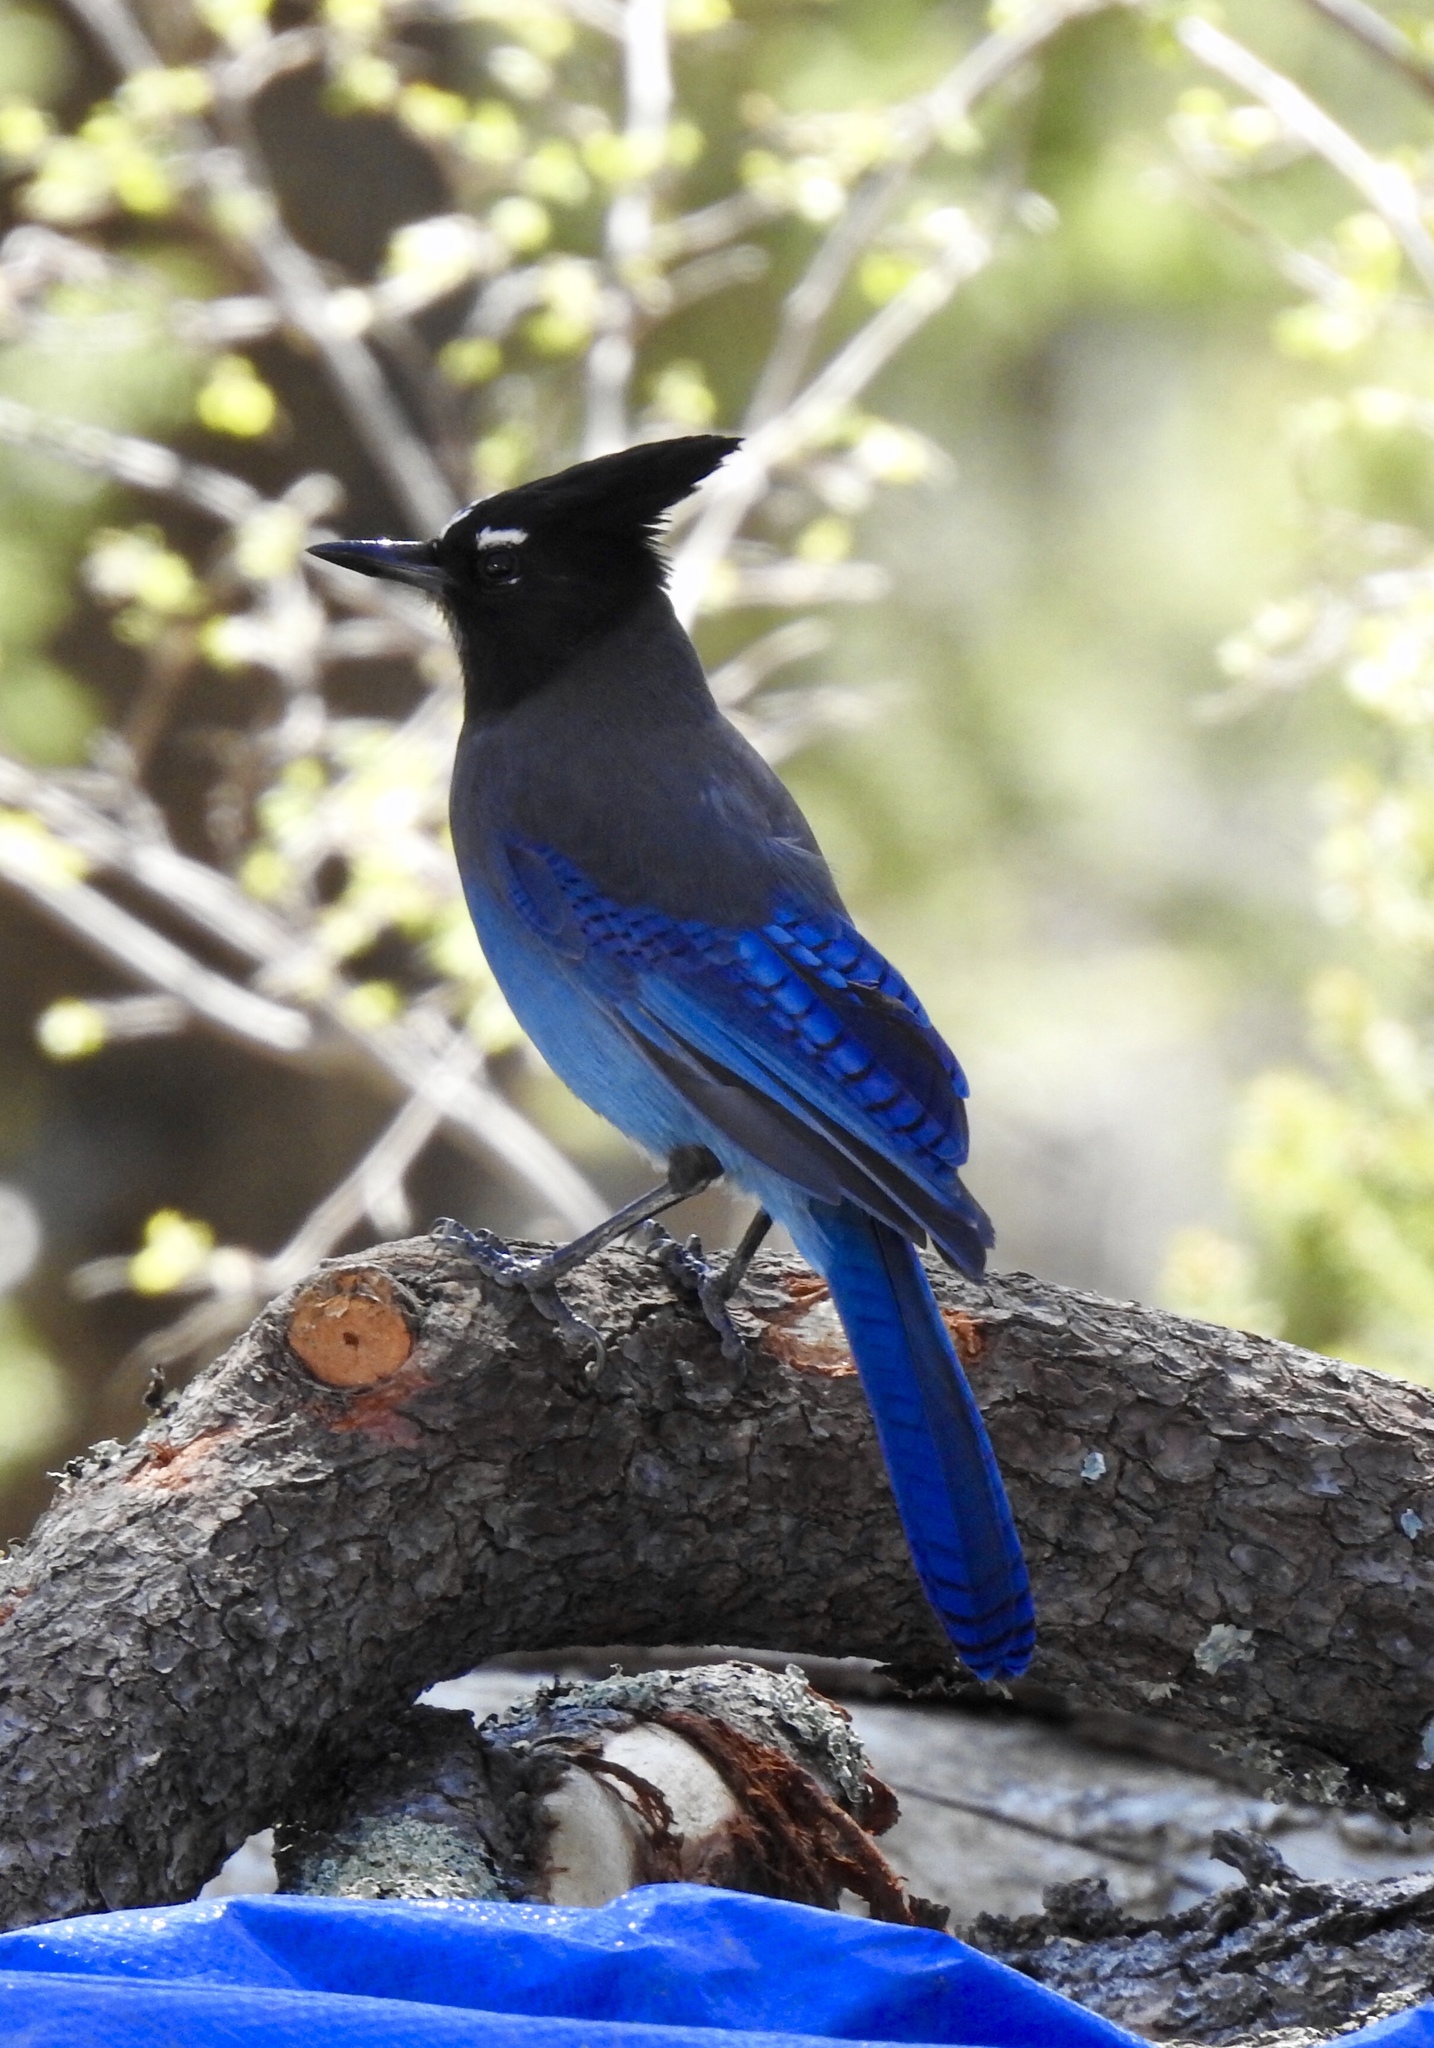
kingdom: Animalia
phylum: Chordata
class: Aves
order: Passeriformes
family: Corvidae
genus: Cyanocitta
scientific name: Cyanocitta stelleri
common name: Steller's jay
